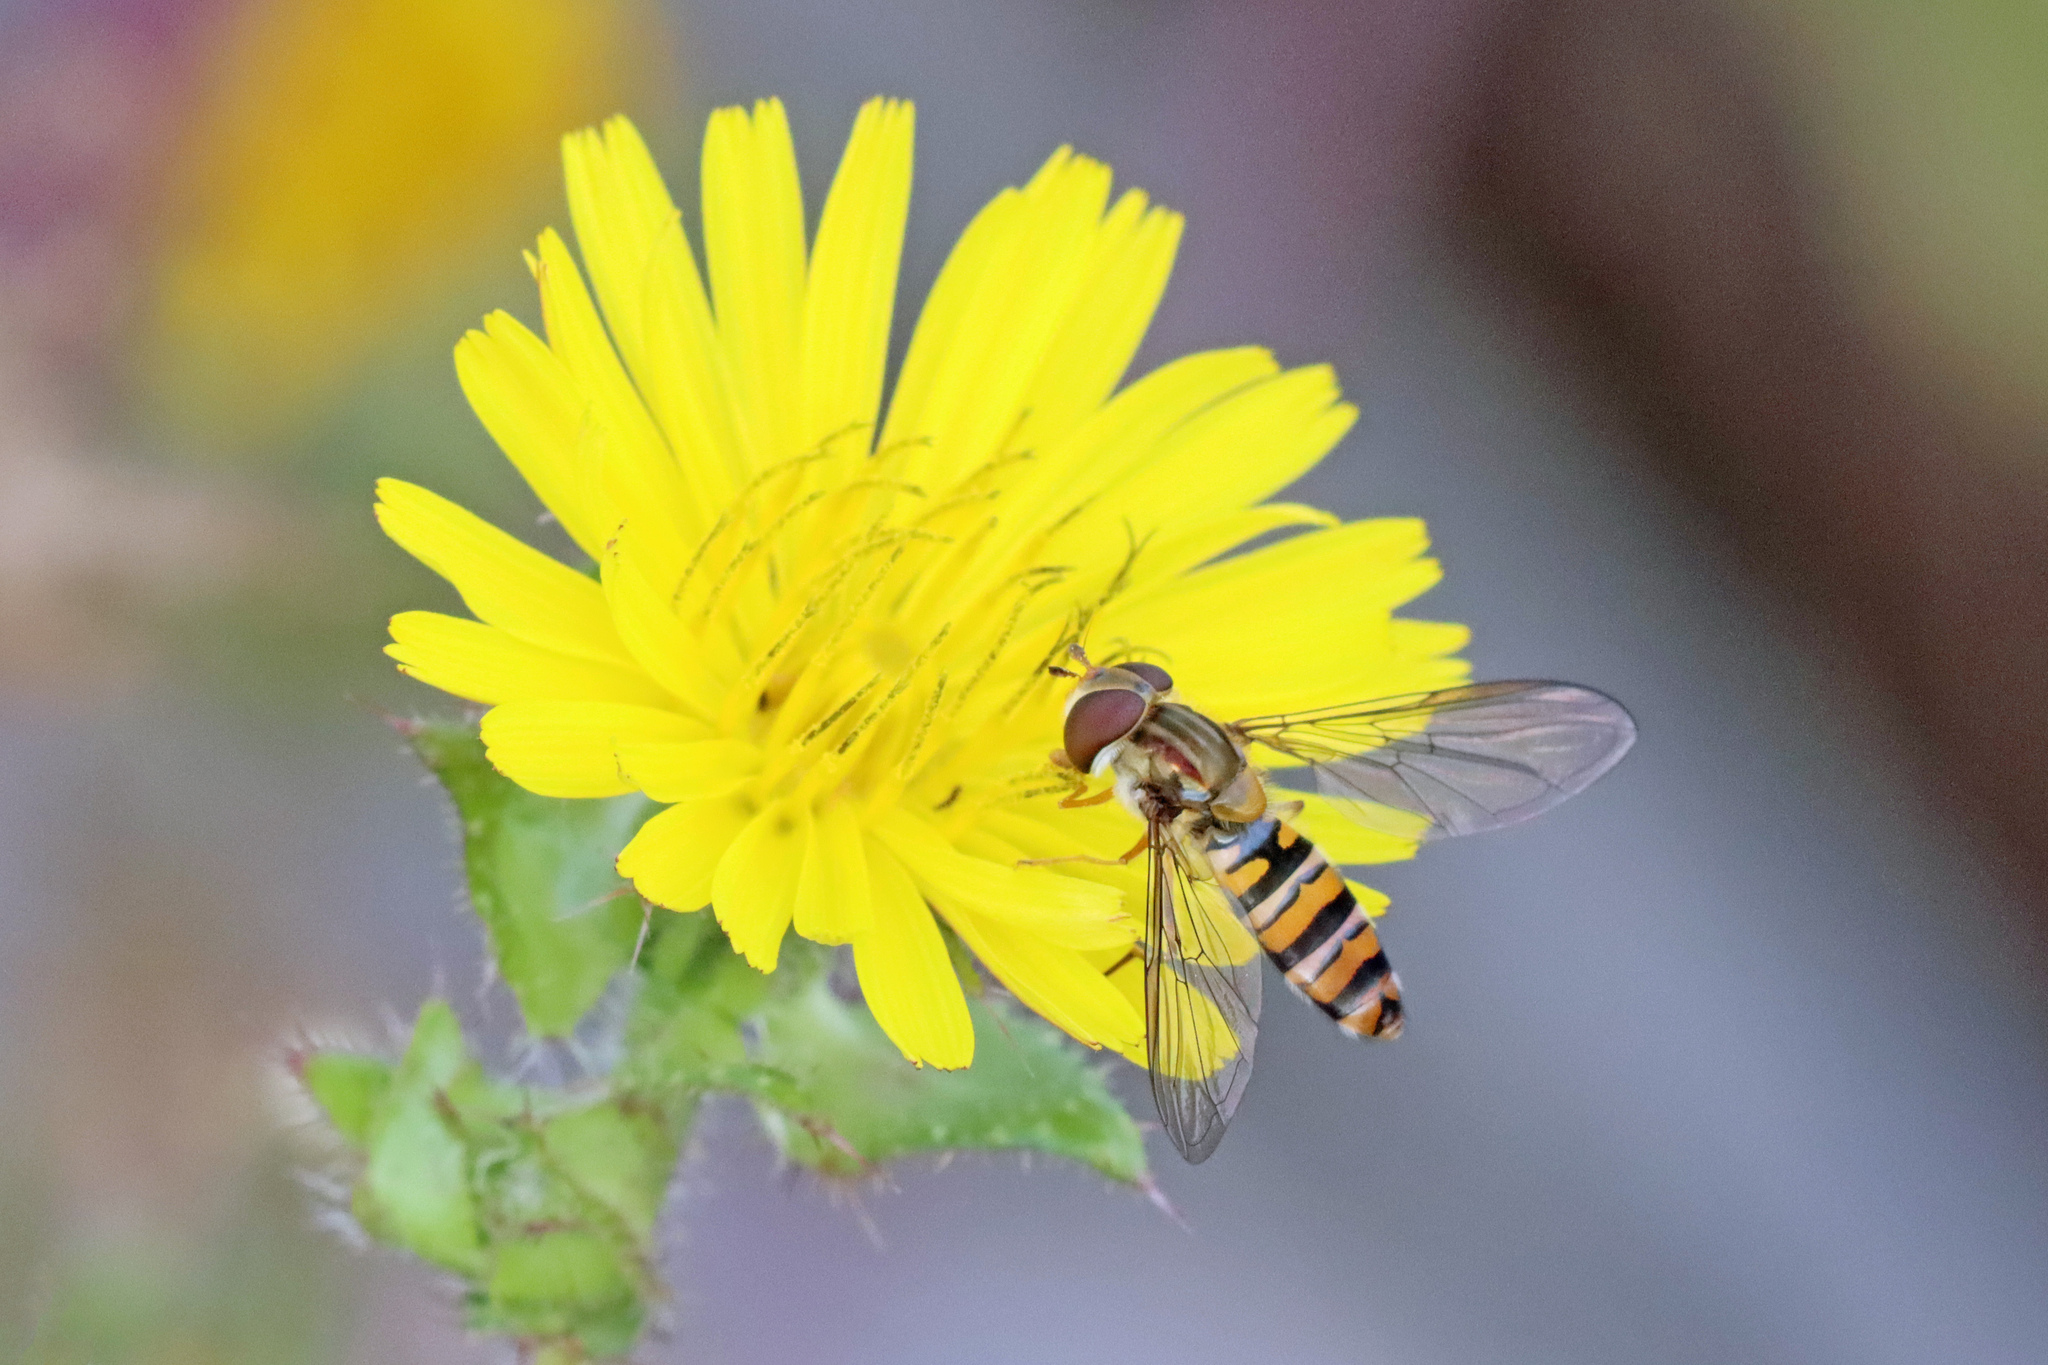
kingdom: Animalia
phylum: Arthropoda
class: Insecta
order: Diptera
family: Syrphidae
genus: Episyrphus
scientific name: Episyrphus balteatus
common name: Marmalade hoverfly
